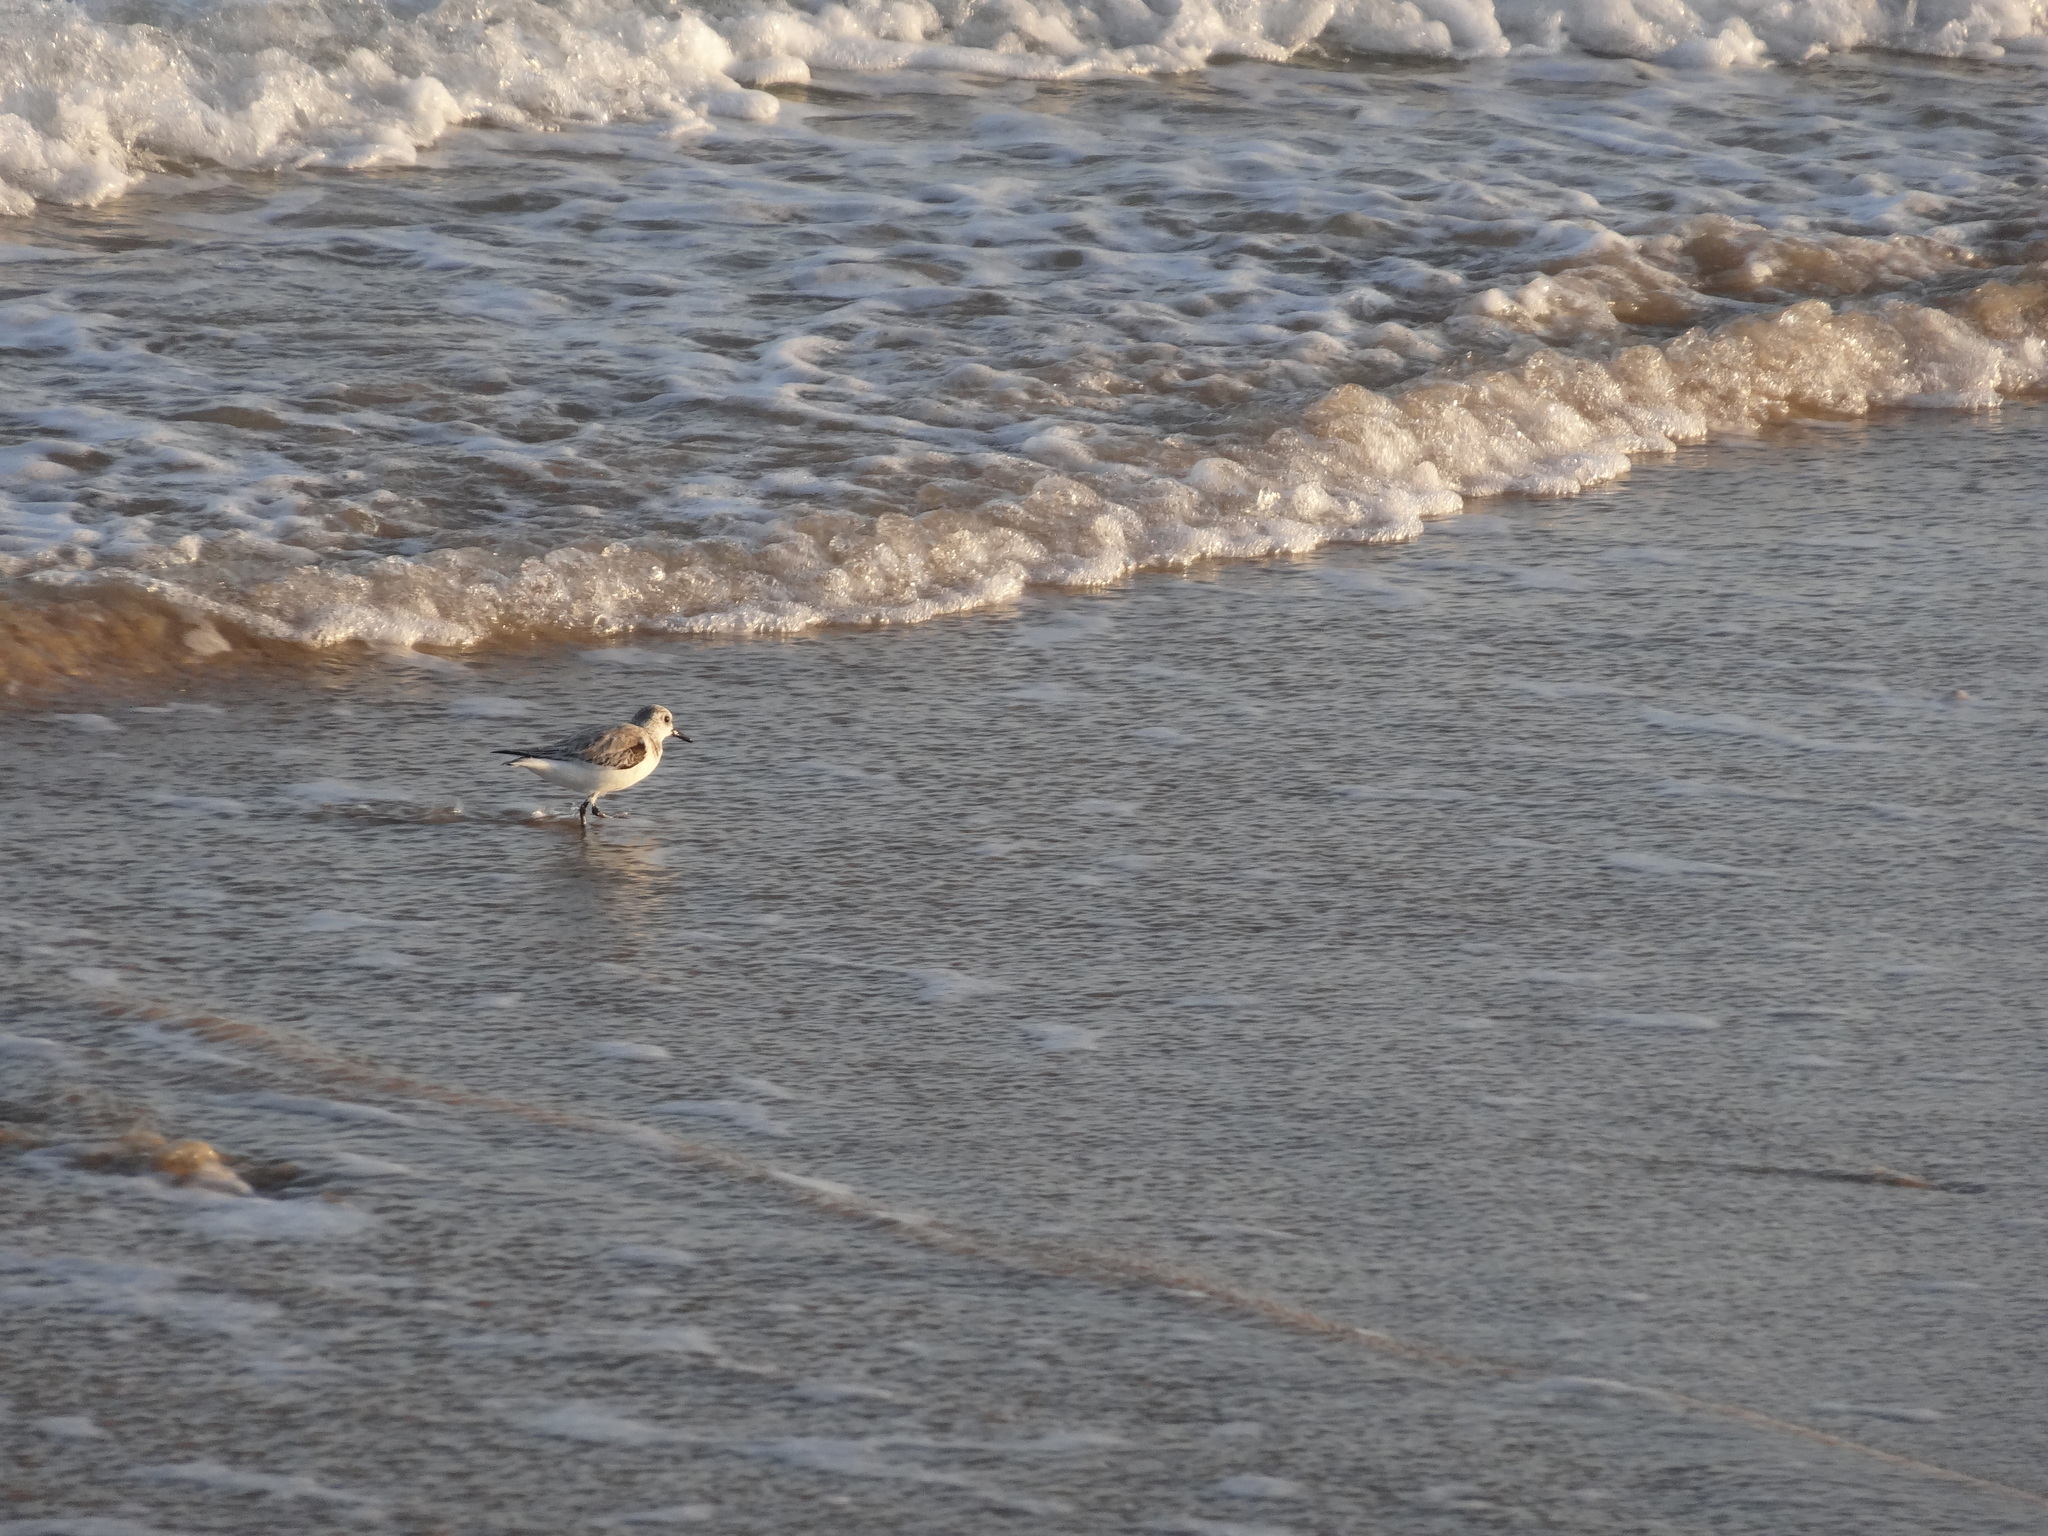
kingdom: Animalia
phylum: Chordata
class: Aves
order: Charadriiformes
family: Scolopacidae
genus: Calidris
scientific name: Calidris alba
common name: Sanderling
